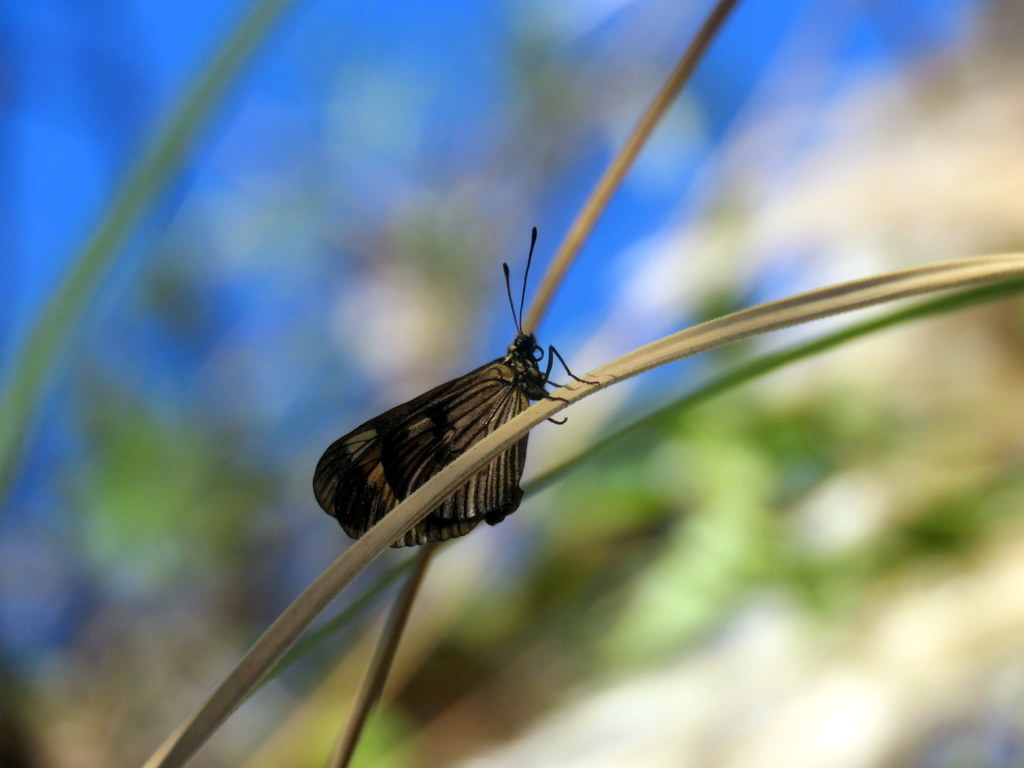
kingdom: Animalia
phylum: Arthropoda
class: Insecta
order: Lepidoptera
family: Nymphalidae
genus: Actinote
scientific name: Actinote pellenea
